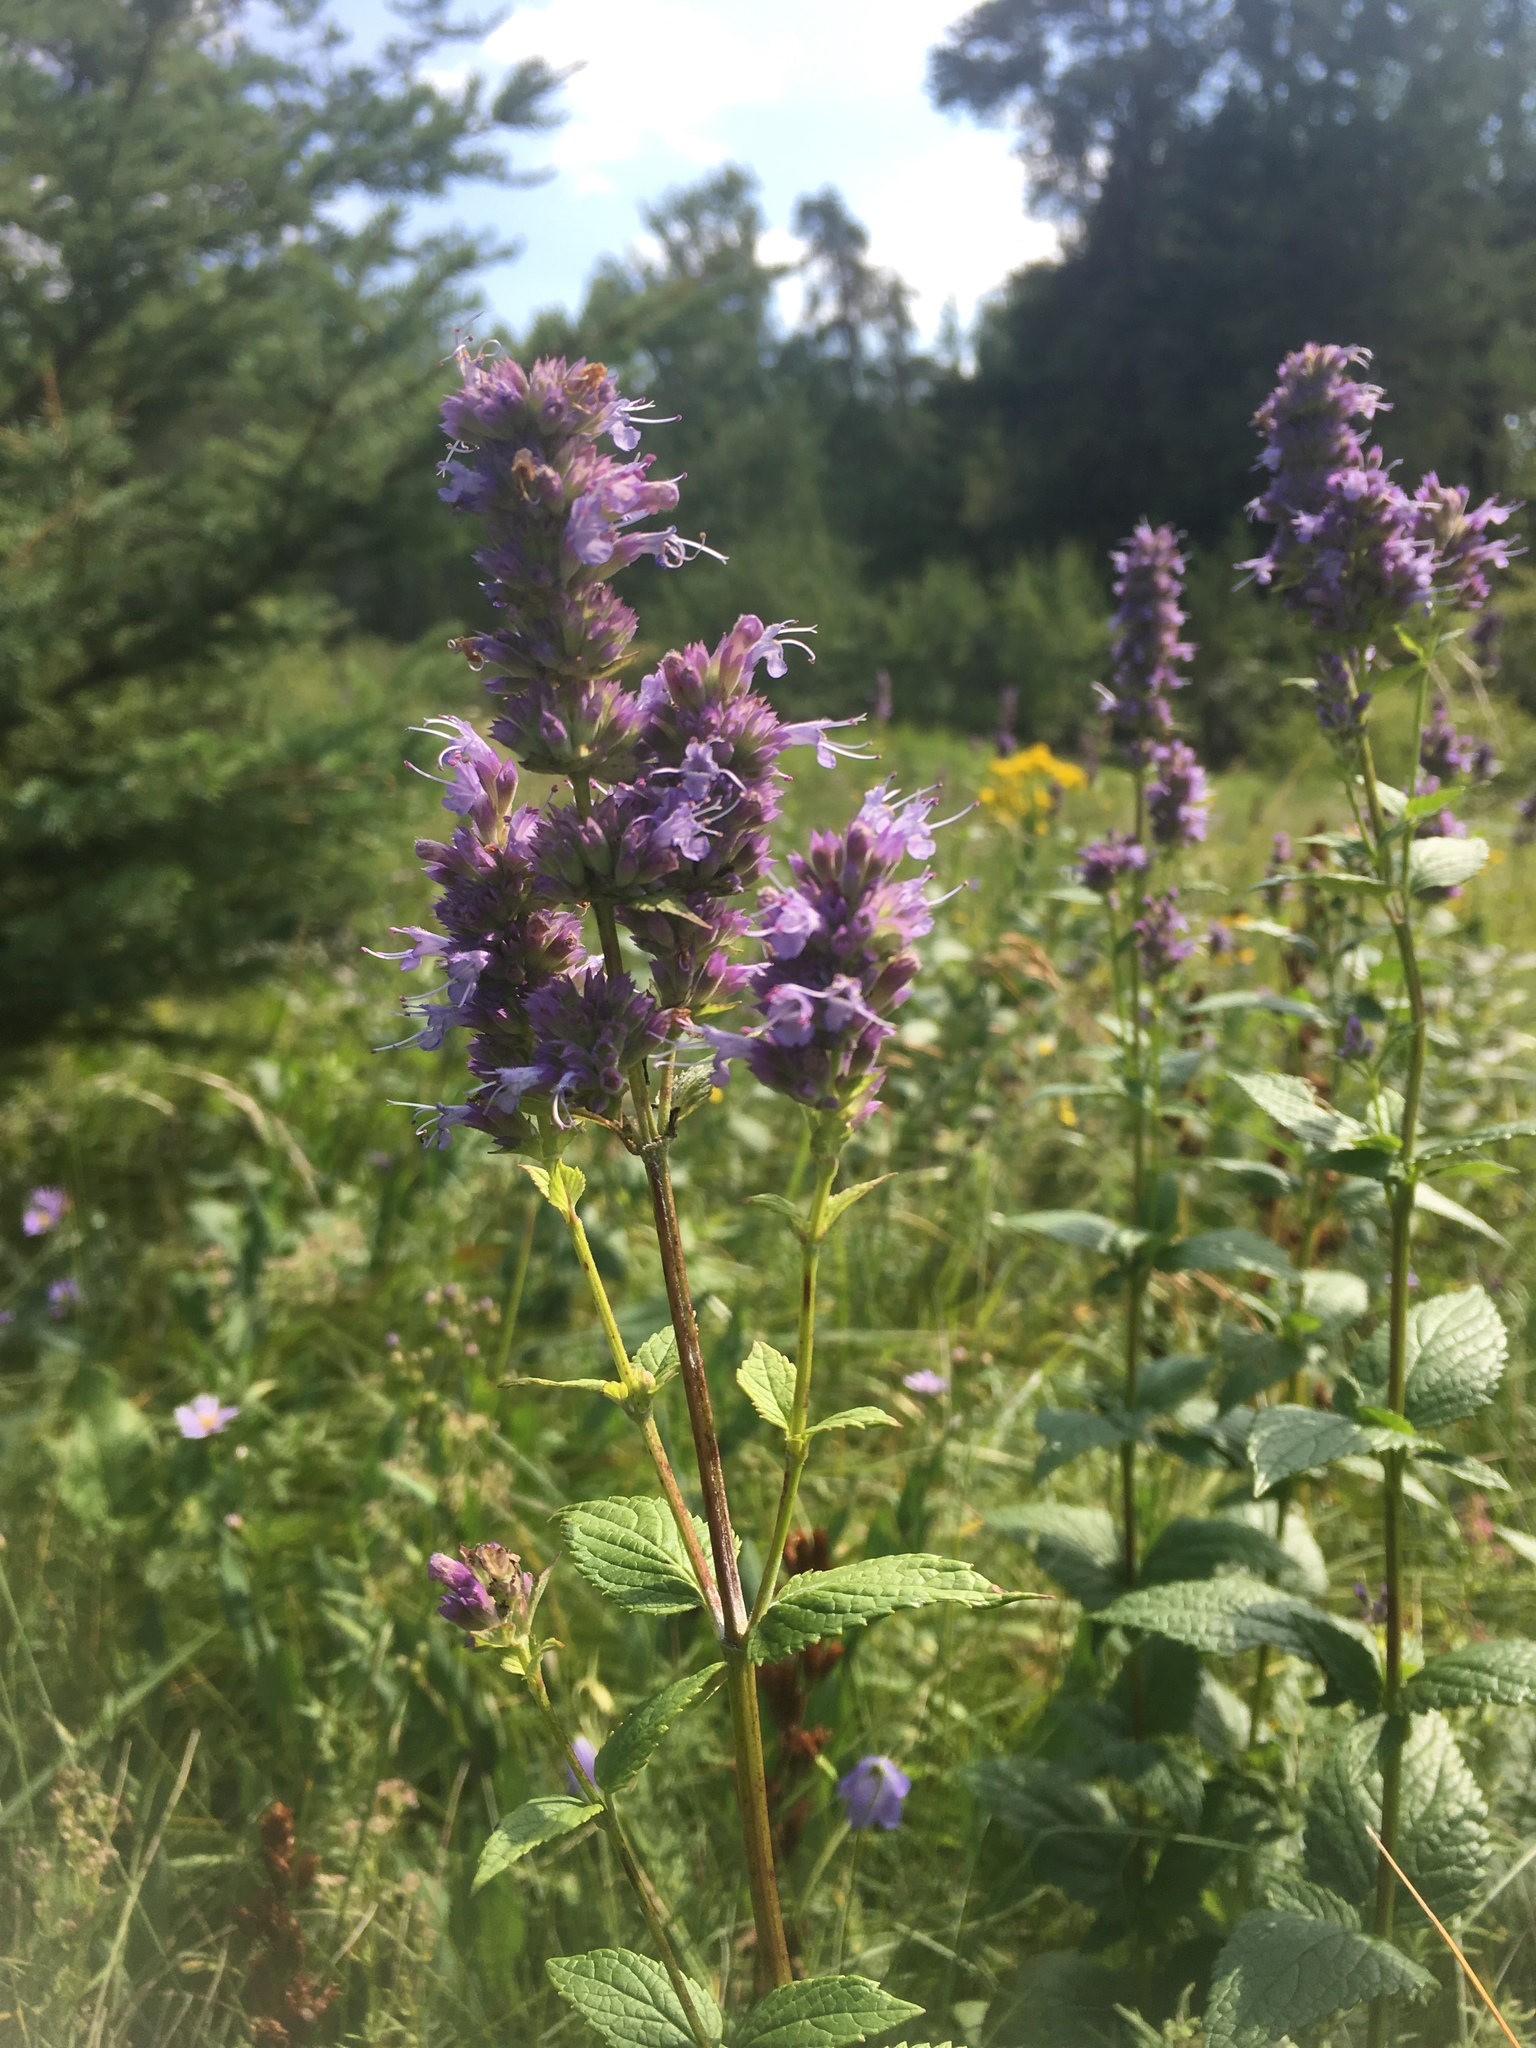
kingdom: Plantae
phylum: Tracheophyta
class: Magnoliopsida
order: Lamiales
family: Lamiaceae
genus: Agastache
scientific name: Agastache foeniculum
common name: Anise hyssop
